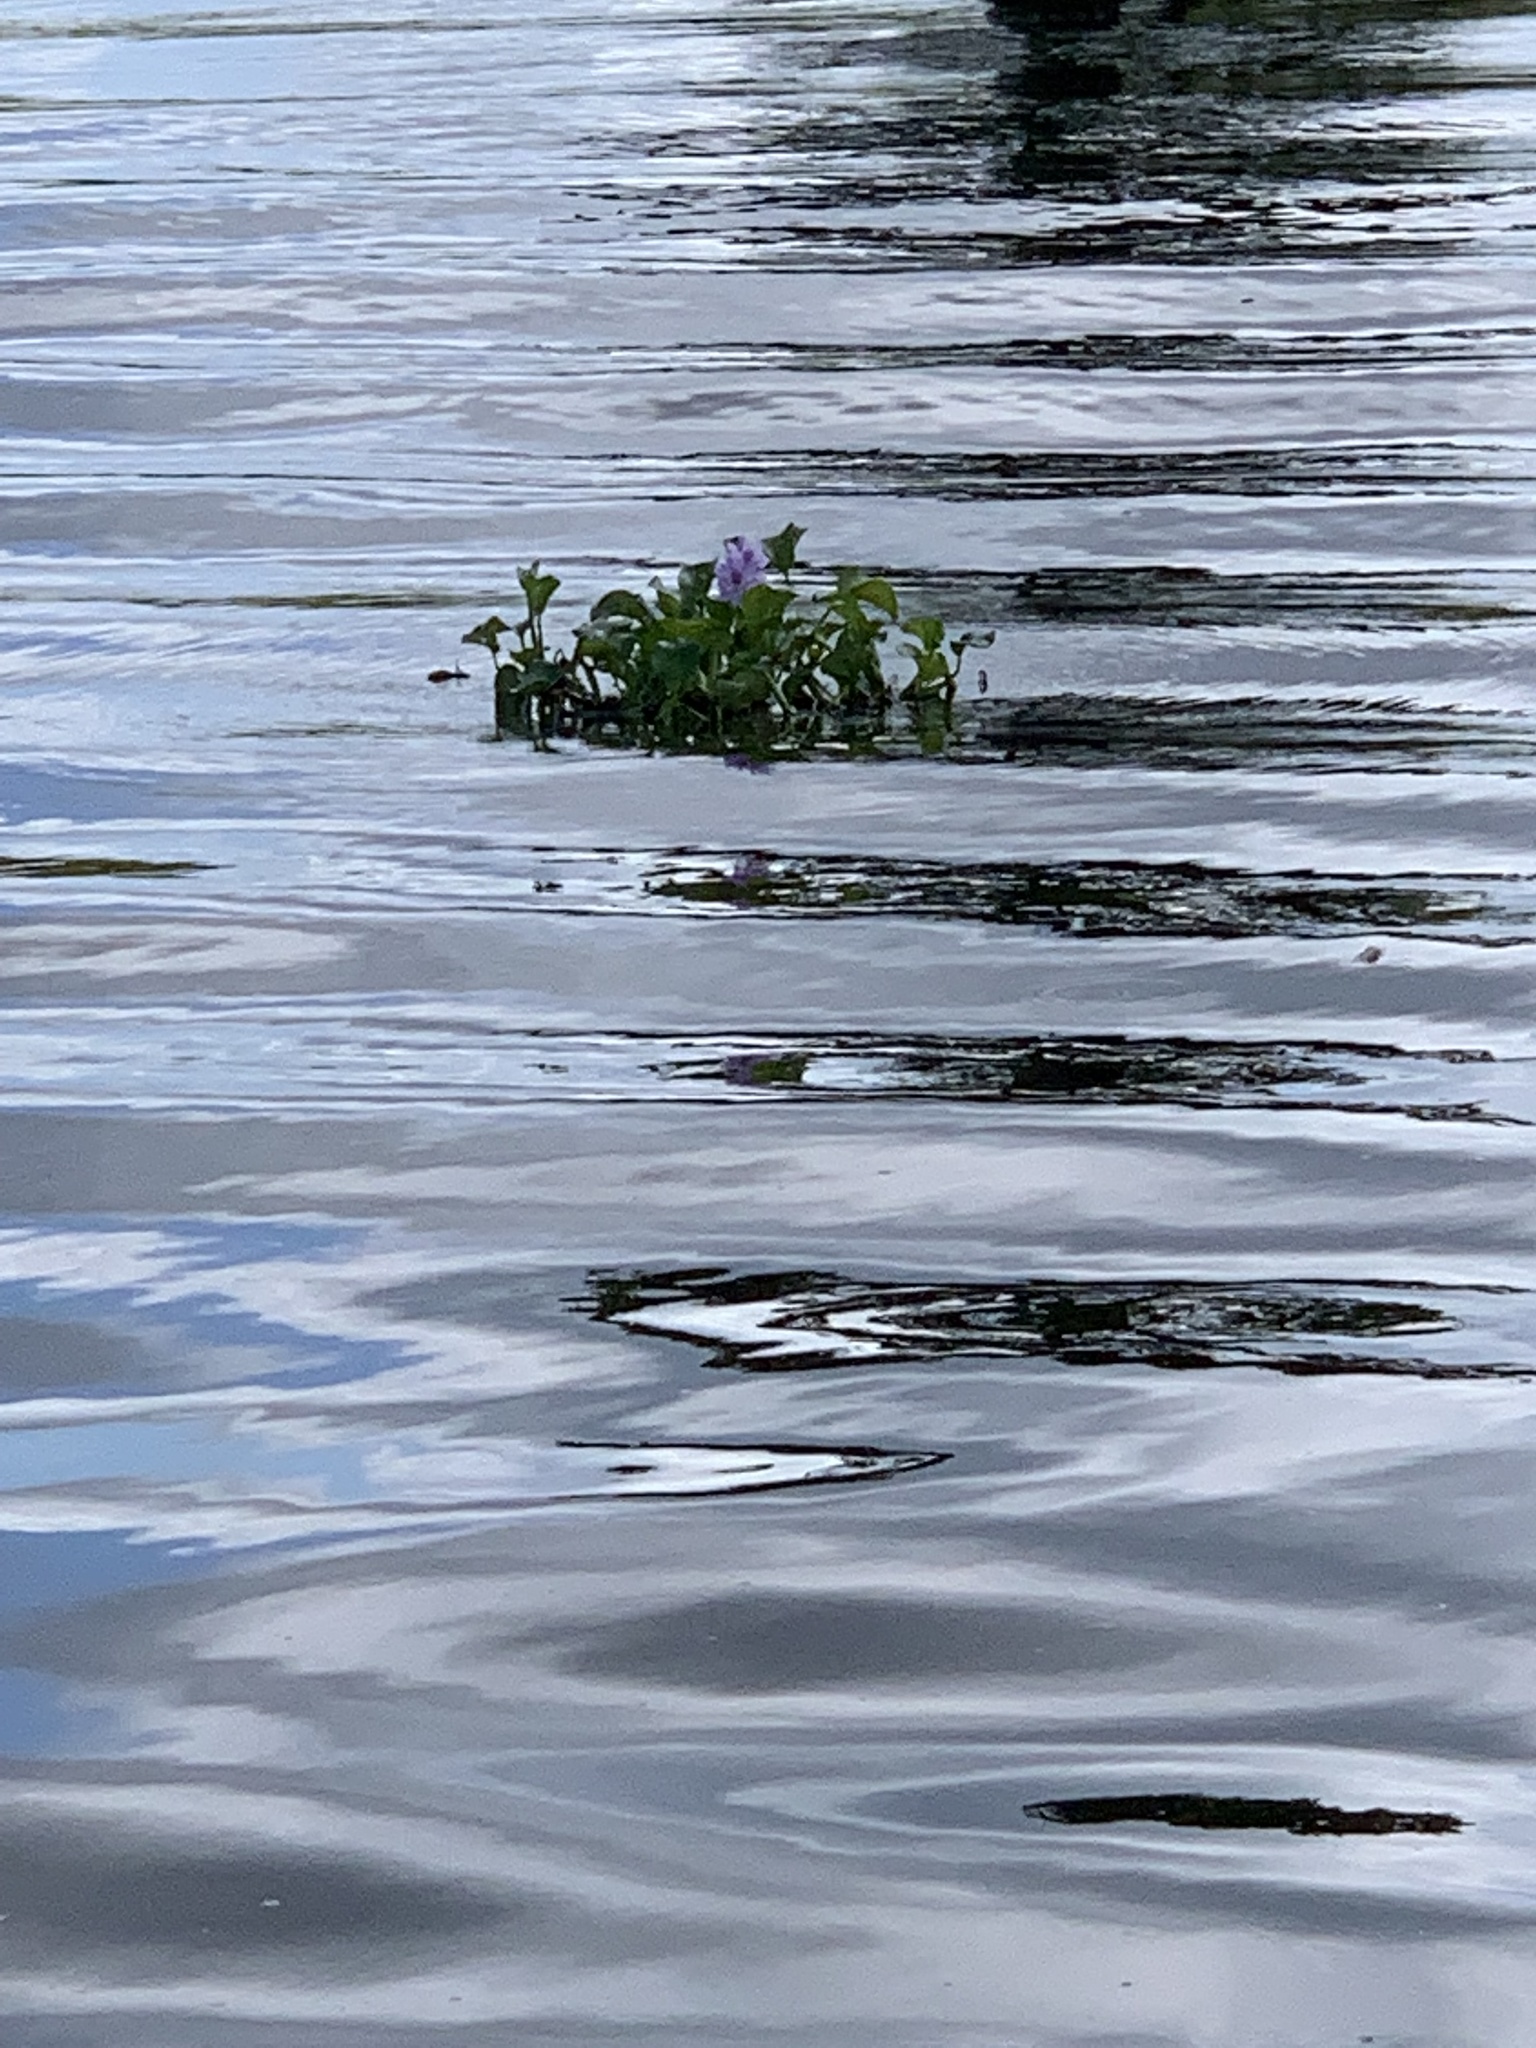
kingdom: Plantae
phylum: Tracheophyta
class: Liliopsida
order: Commelinales
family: Pontederiaceae
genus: Pontederia
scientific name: Pontederia crassipes
